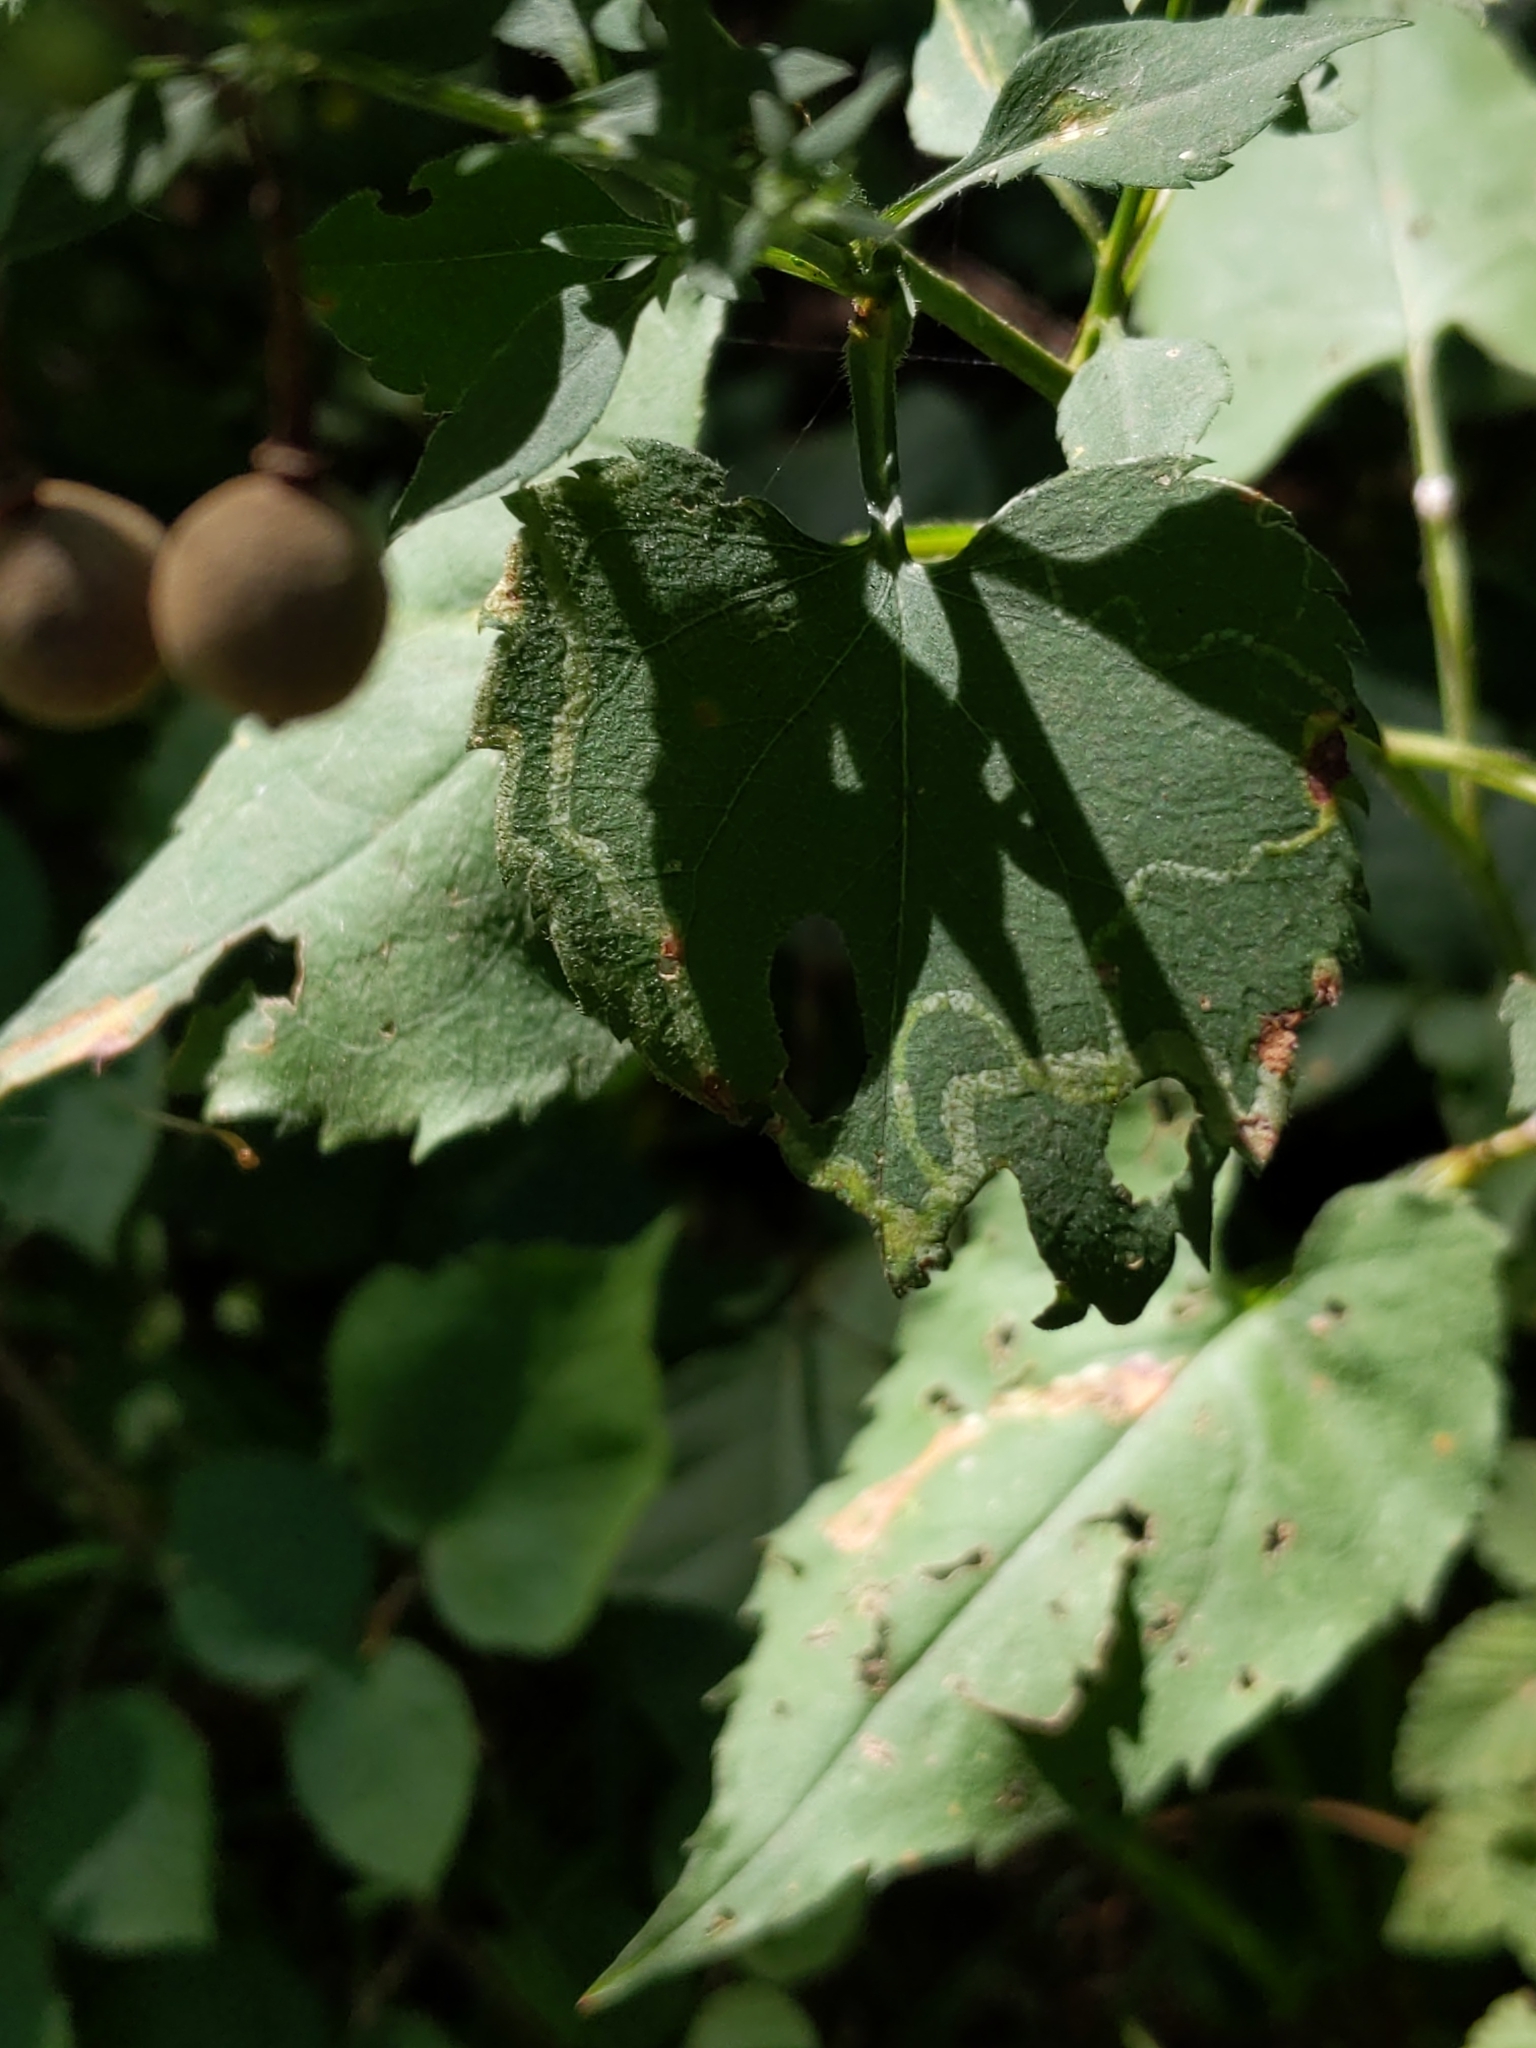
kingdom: Animalia
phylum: Arthropoda
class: Insecta
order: Diptera
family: Agromyzidae
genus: Ophiomyia
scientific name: Ophiomyia parda
